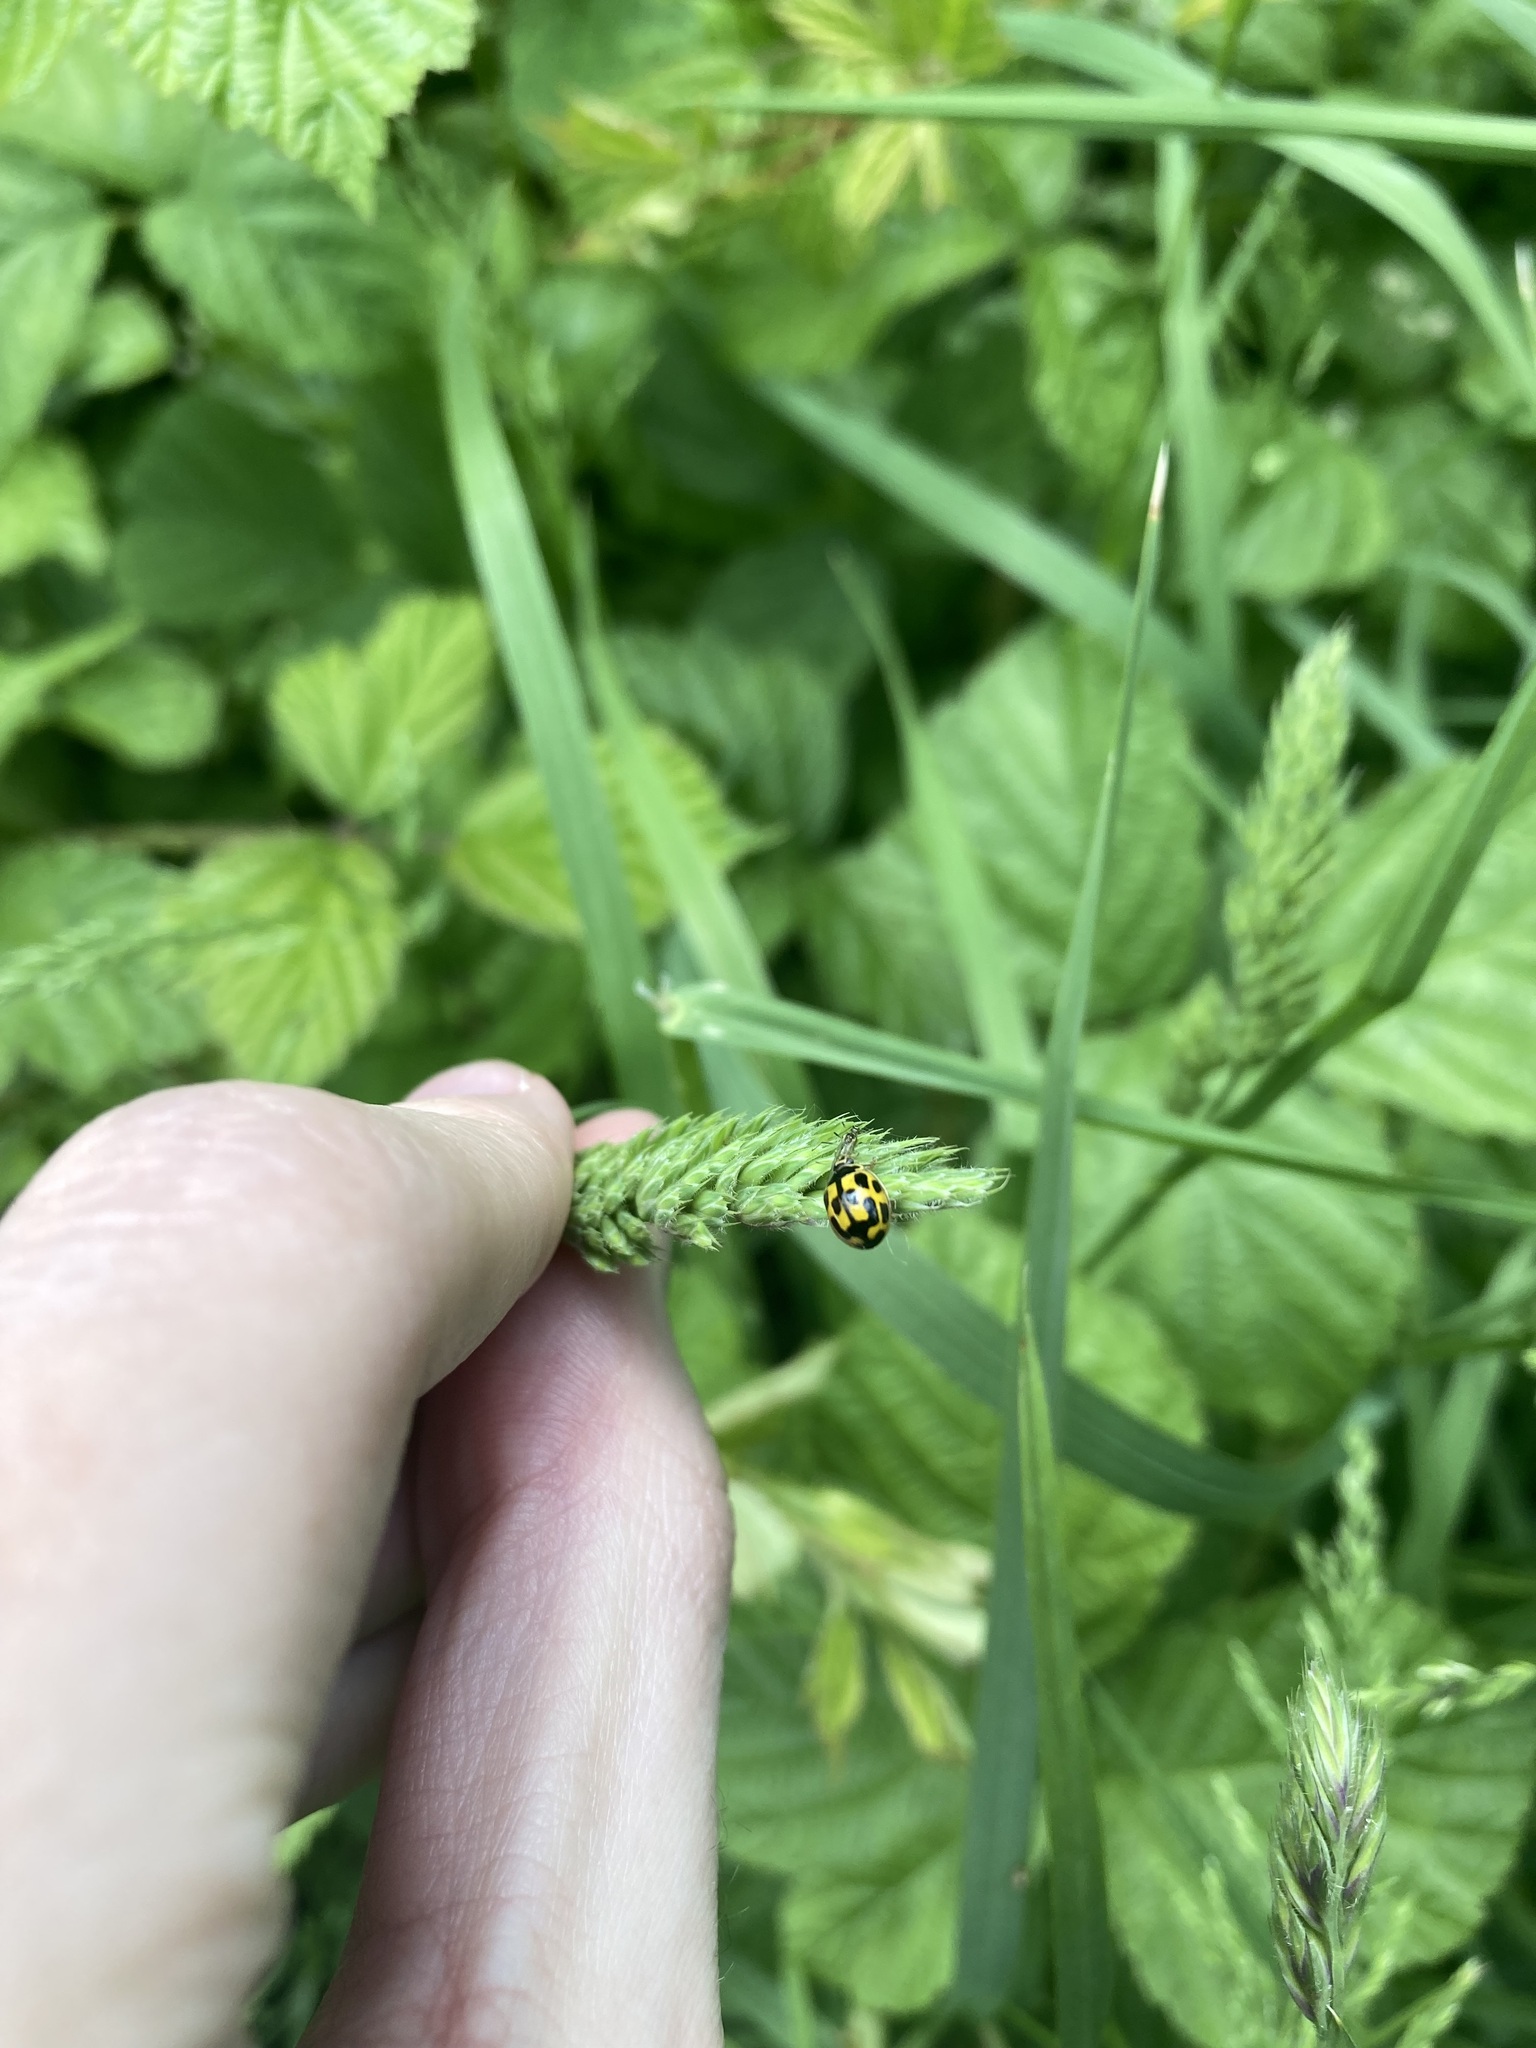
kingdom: Animalia
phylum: Arthropoda
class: Insecta
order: Coleoptera
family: Coccinellidae
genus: Propylaea
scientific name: Propylaea quatuordecimpunctata
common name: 14-spotted ladybird beetle
